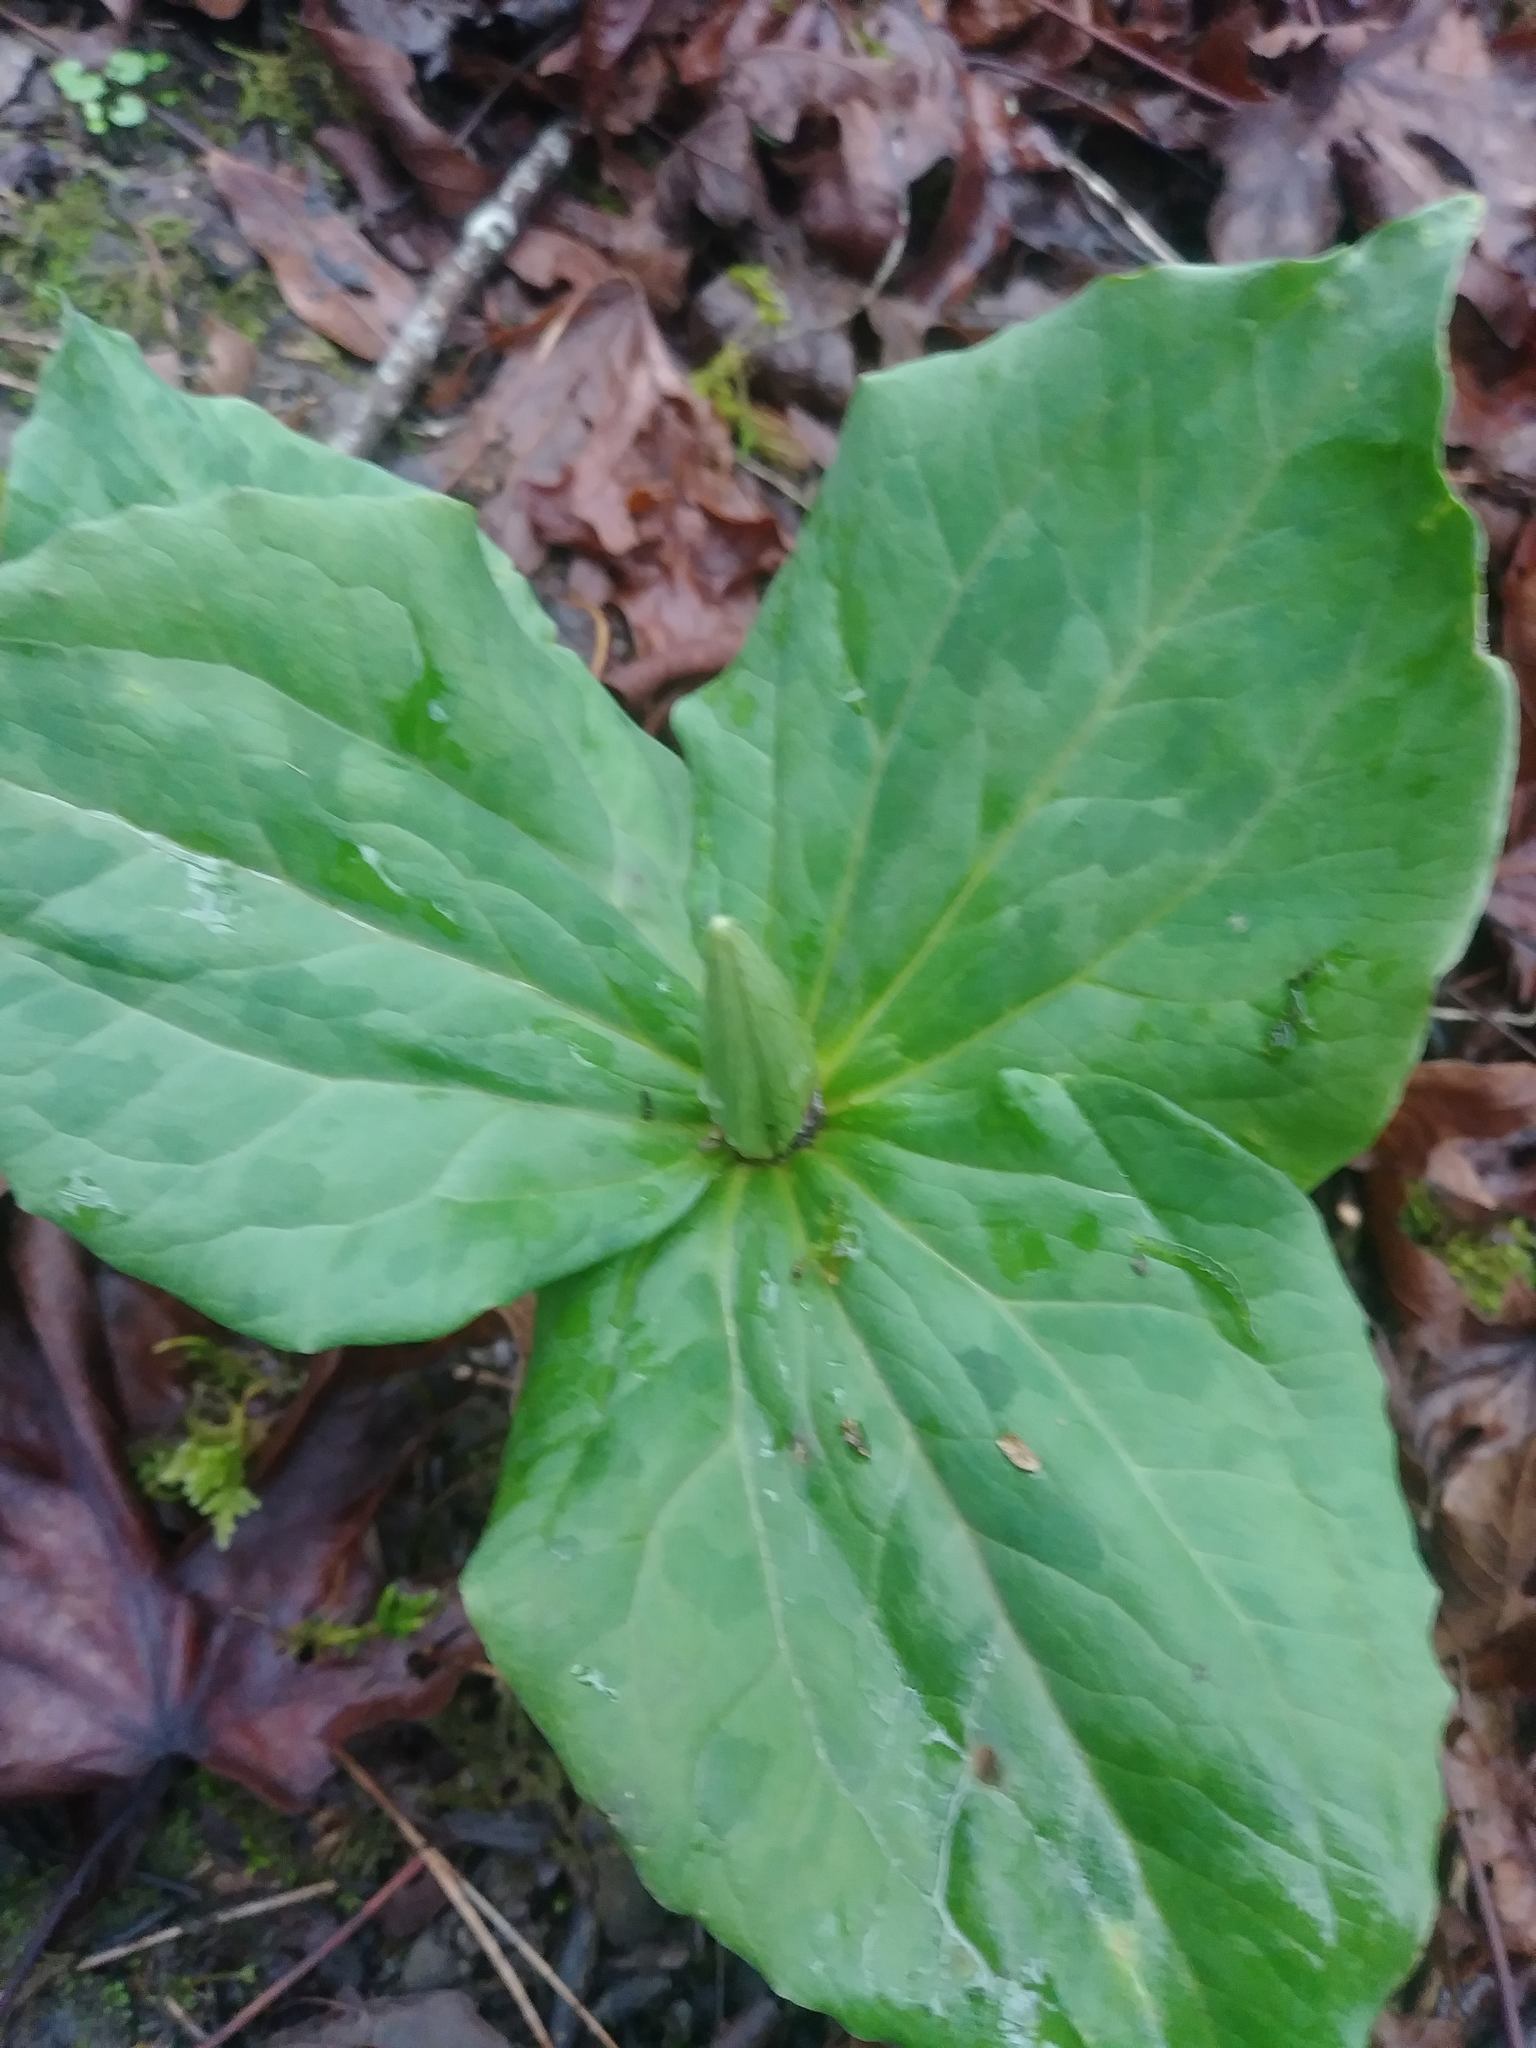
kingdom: Plantae
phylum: Tracheophyta
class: Liliopsida
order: Liliales
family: Melanthiaceae
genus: Trillium
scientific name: Trillium chloropetalum
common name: Giant trillium
